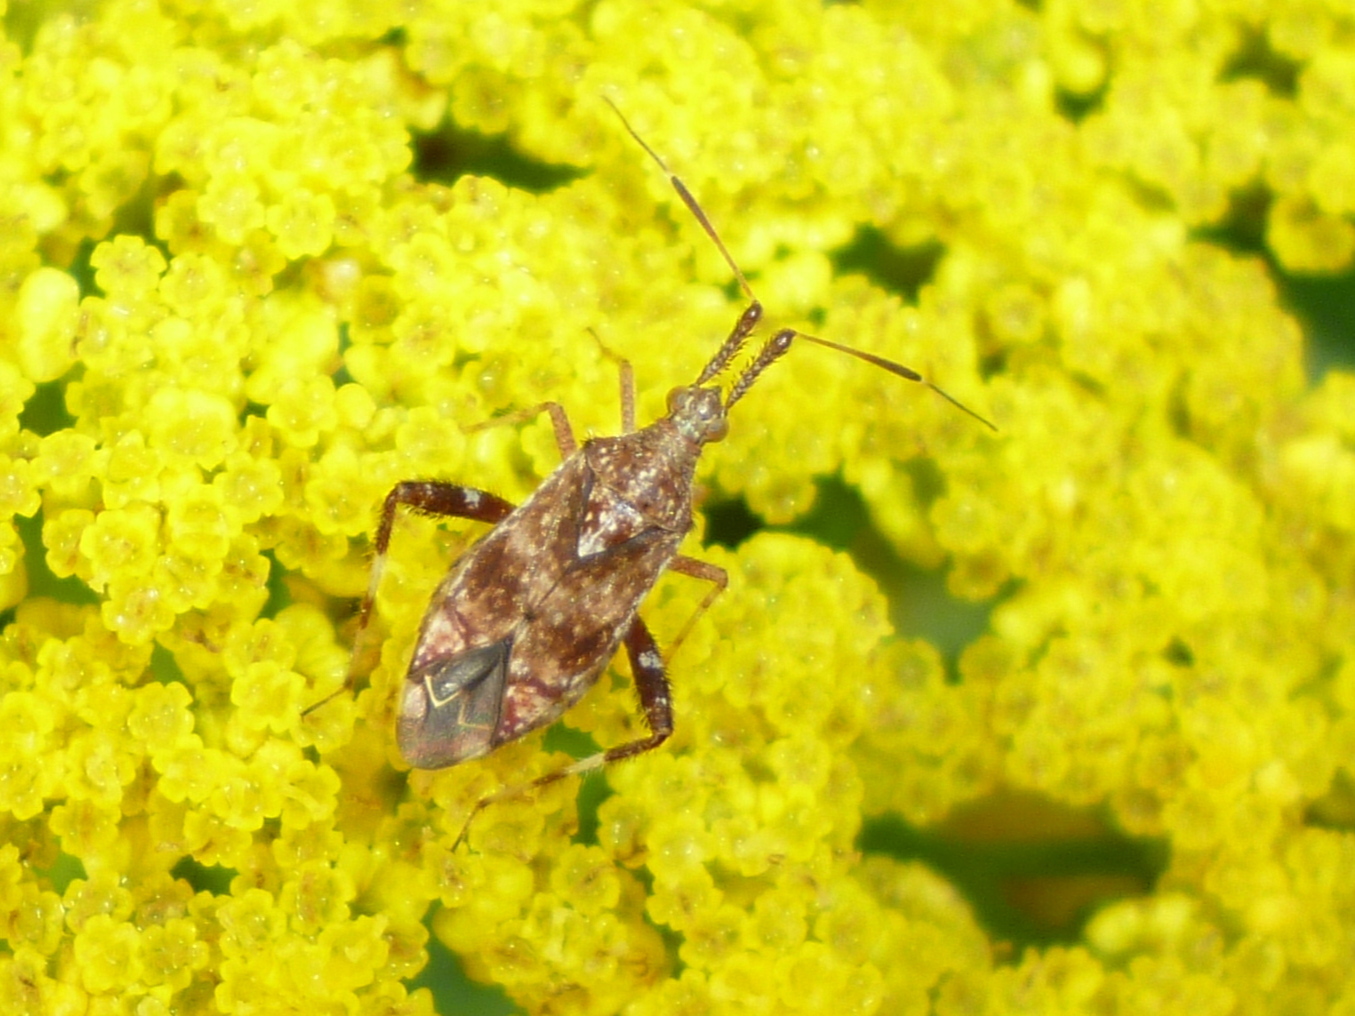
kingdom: Animalia
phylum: Arthropoda
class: Insecta
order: Hemiptera
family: Miridae
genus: Neurocolpus
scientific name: Neurocolpus nubilus
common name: Clouded plant bug
